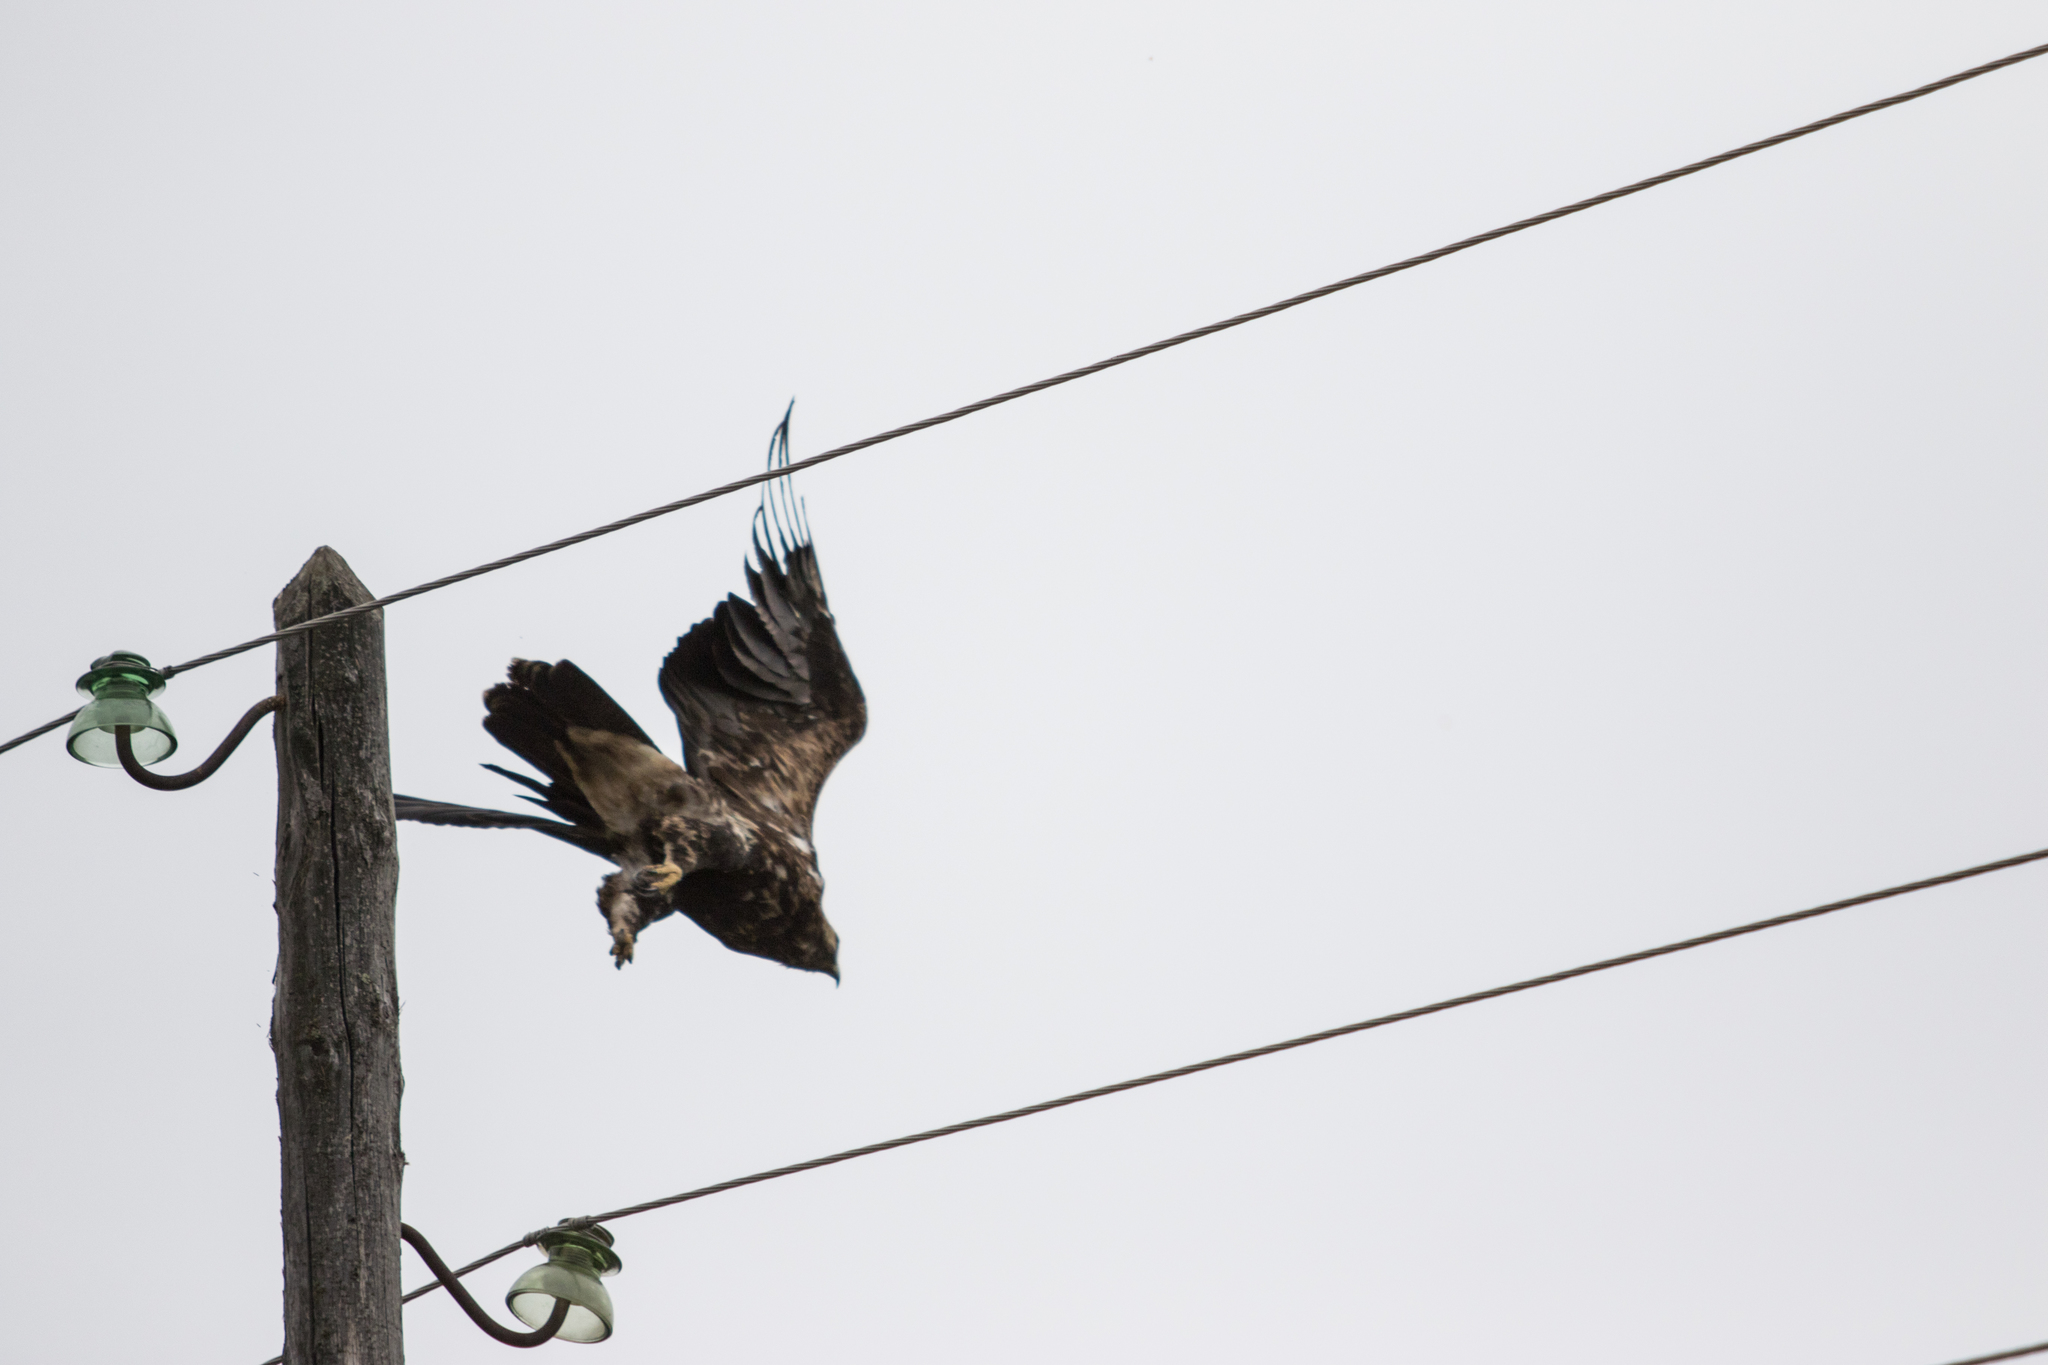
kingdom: Animalia
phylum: Chordata
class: Aves
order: Accipitriformes
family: Accipitridae
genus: Aquila
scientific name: Aquila heliaca
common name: Eastern imperial eagle
